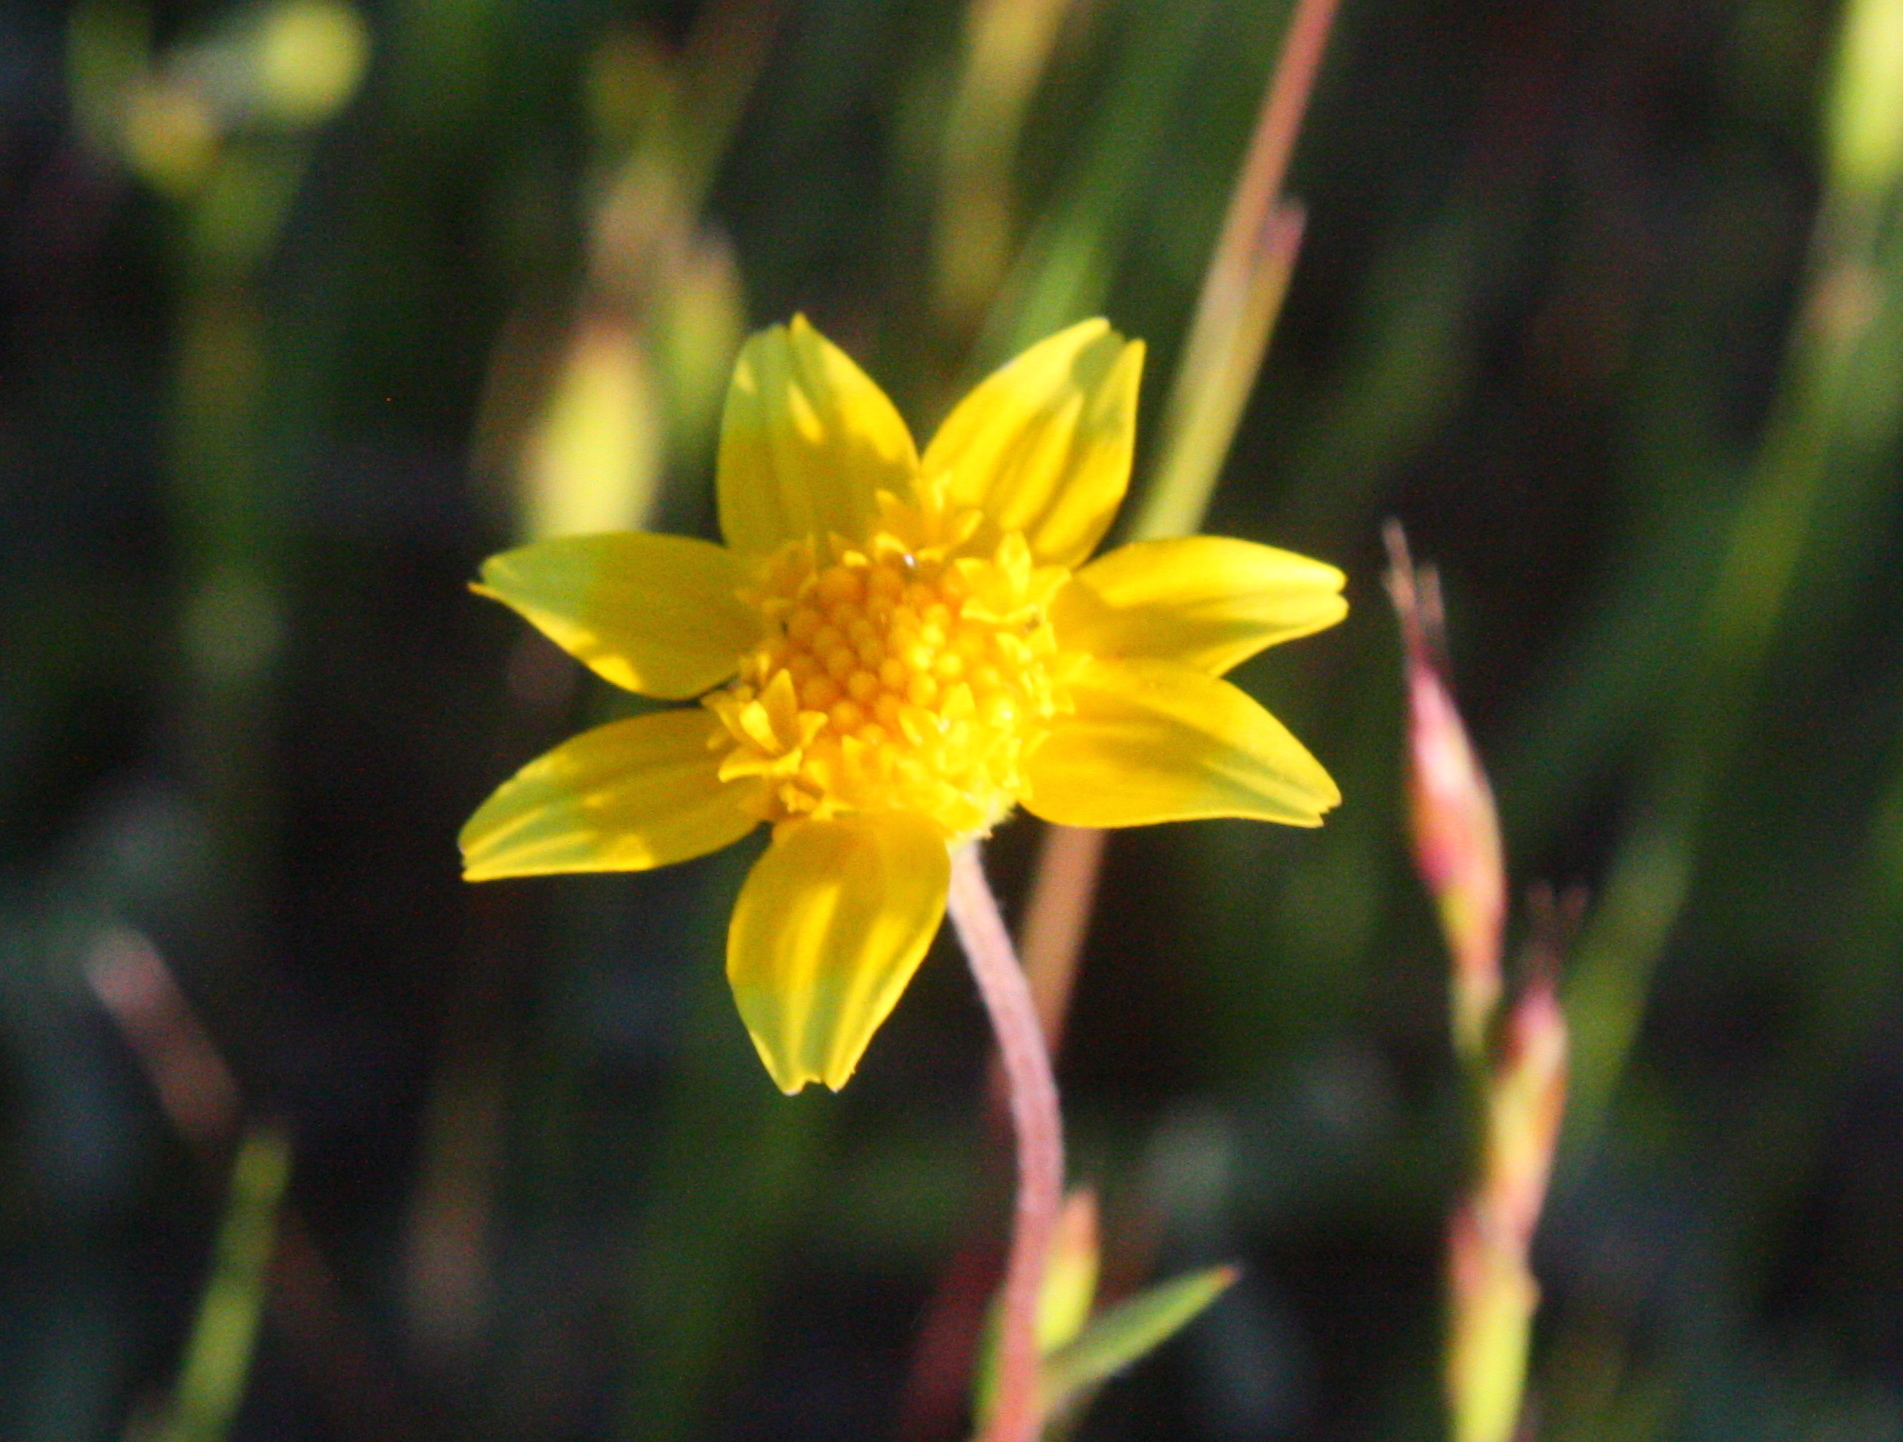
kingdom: Plantae
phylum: Tracheophyta
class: Magnoliopsida
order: Asterales
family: Asteraceae
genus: Lasthenia
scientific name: Lasthenia californica
